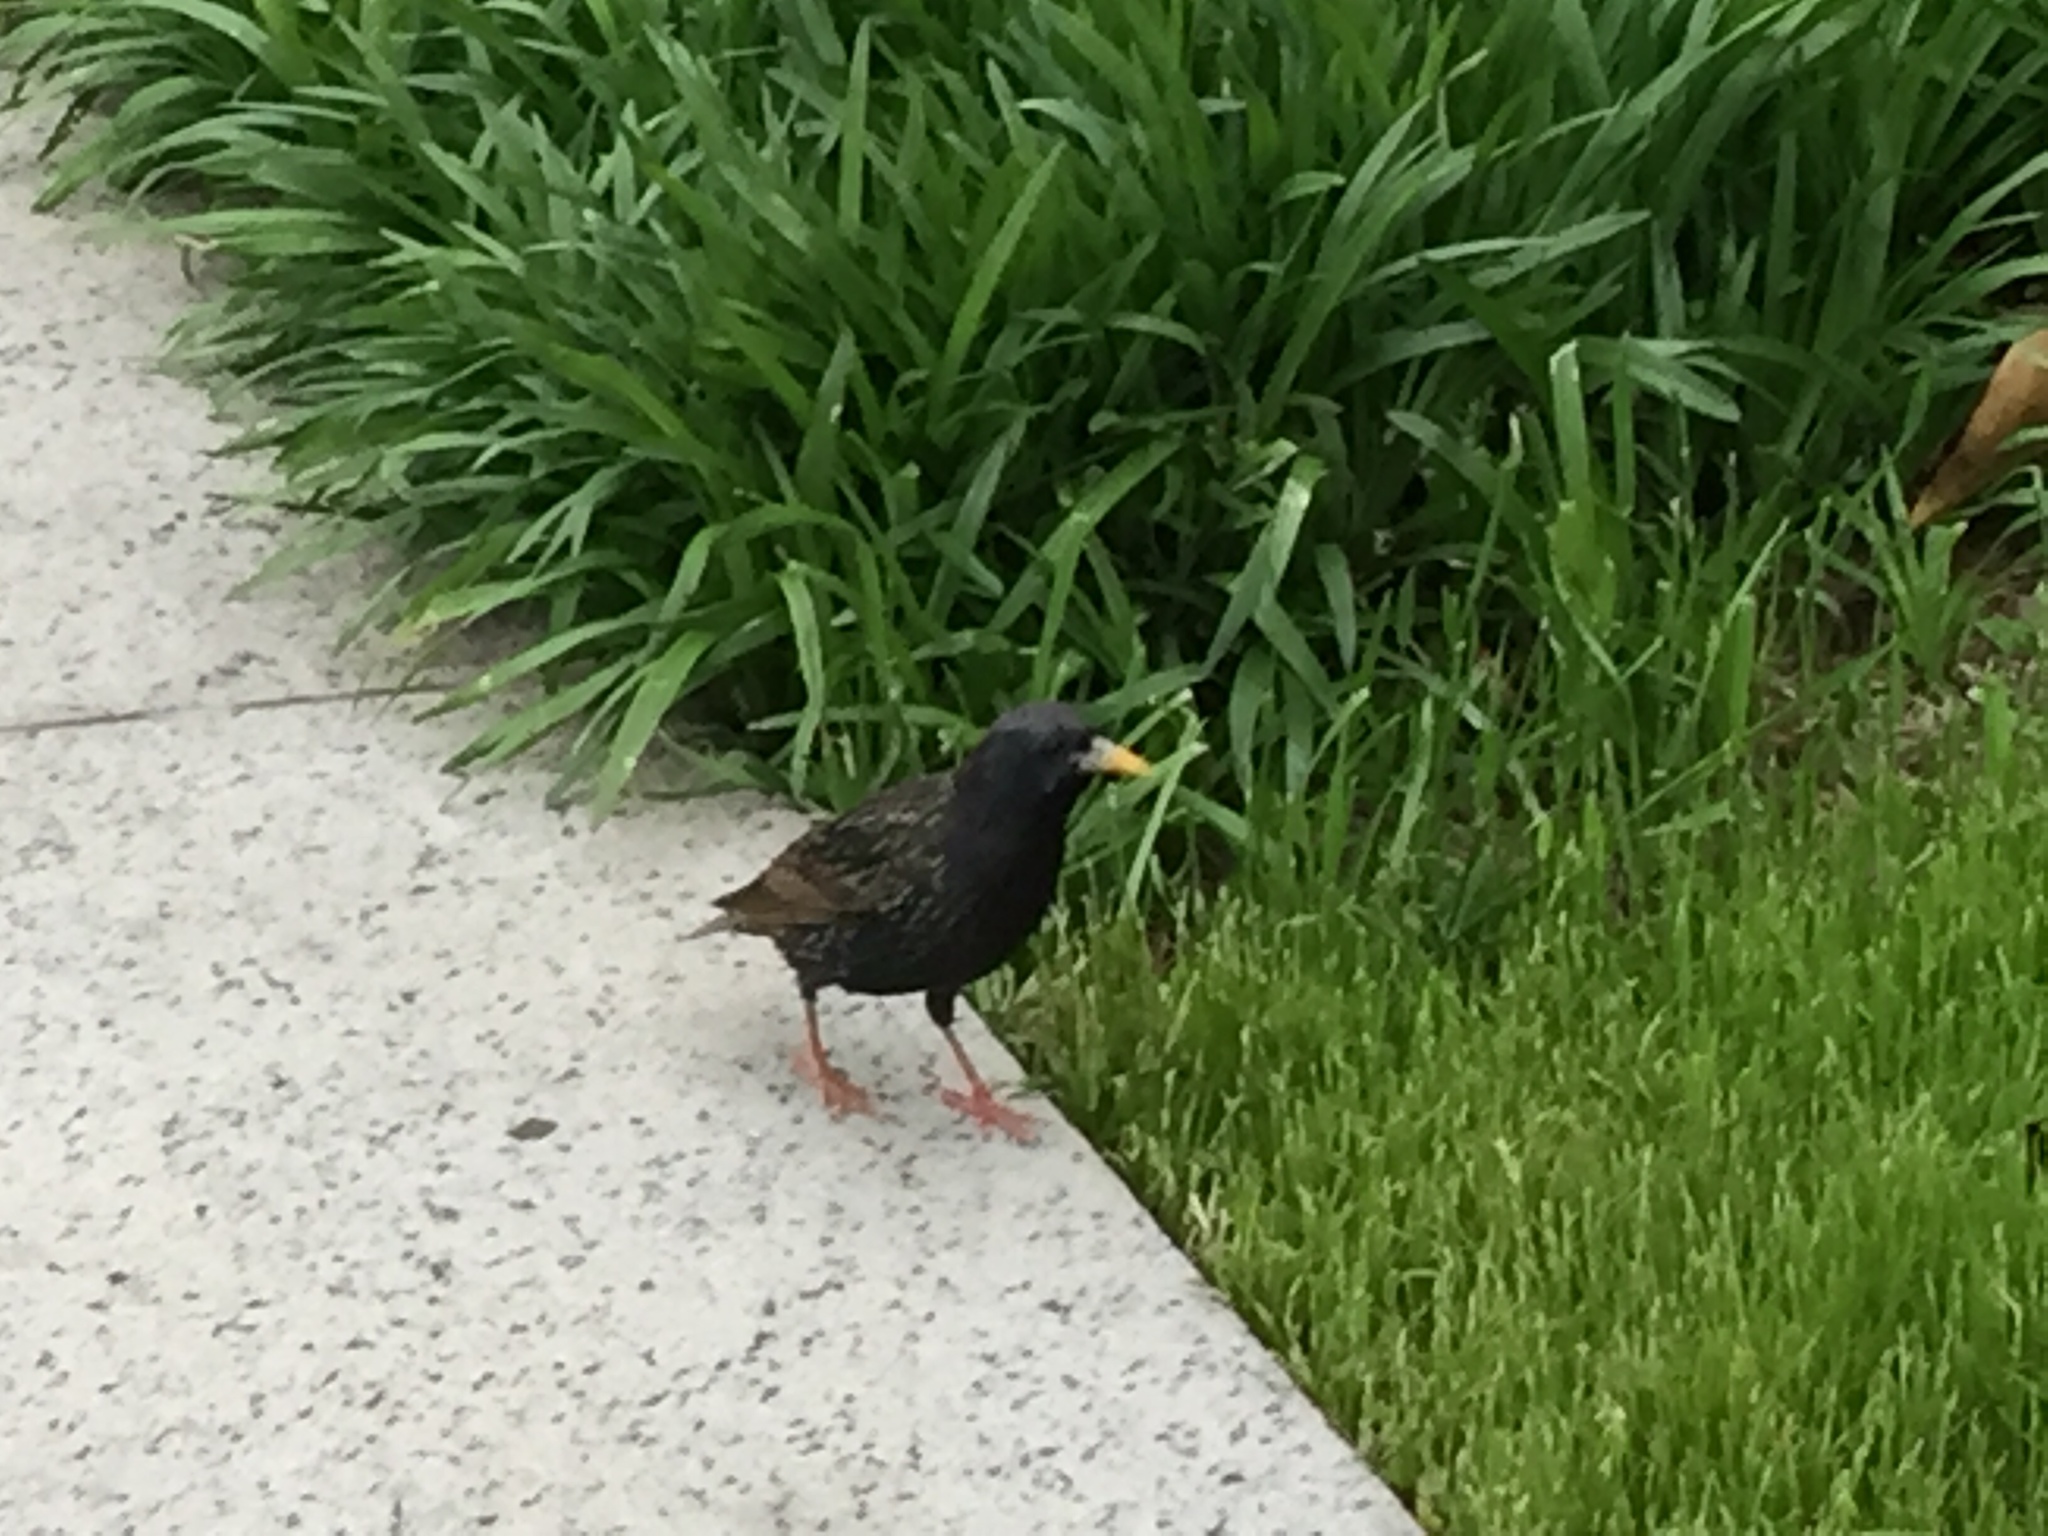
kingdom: Animalia
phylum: Chordata
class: Aves
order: Passeriformes
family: Sturnidae
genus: Sturnus
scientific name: Sturnus vulgaris
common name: Common starling
